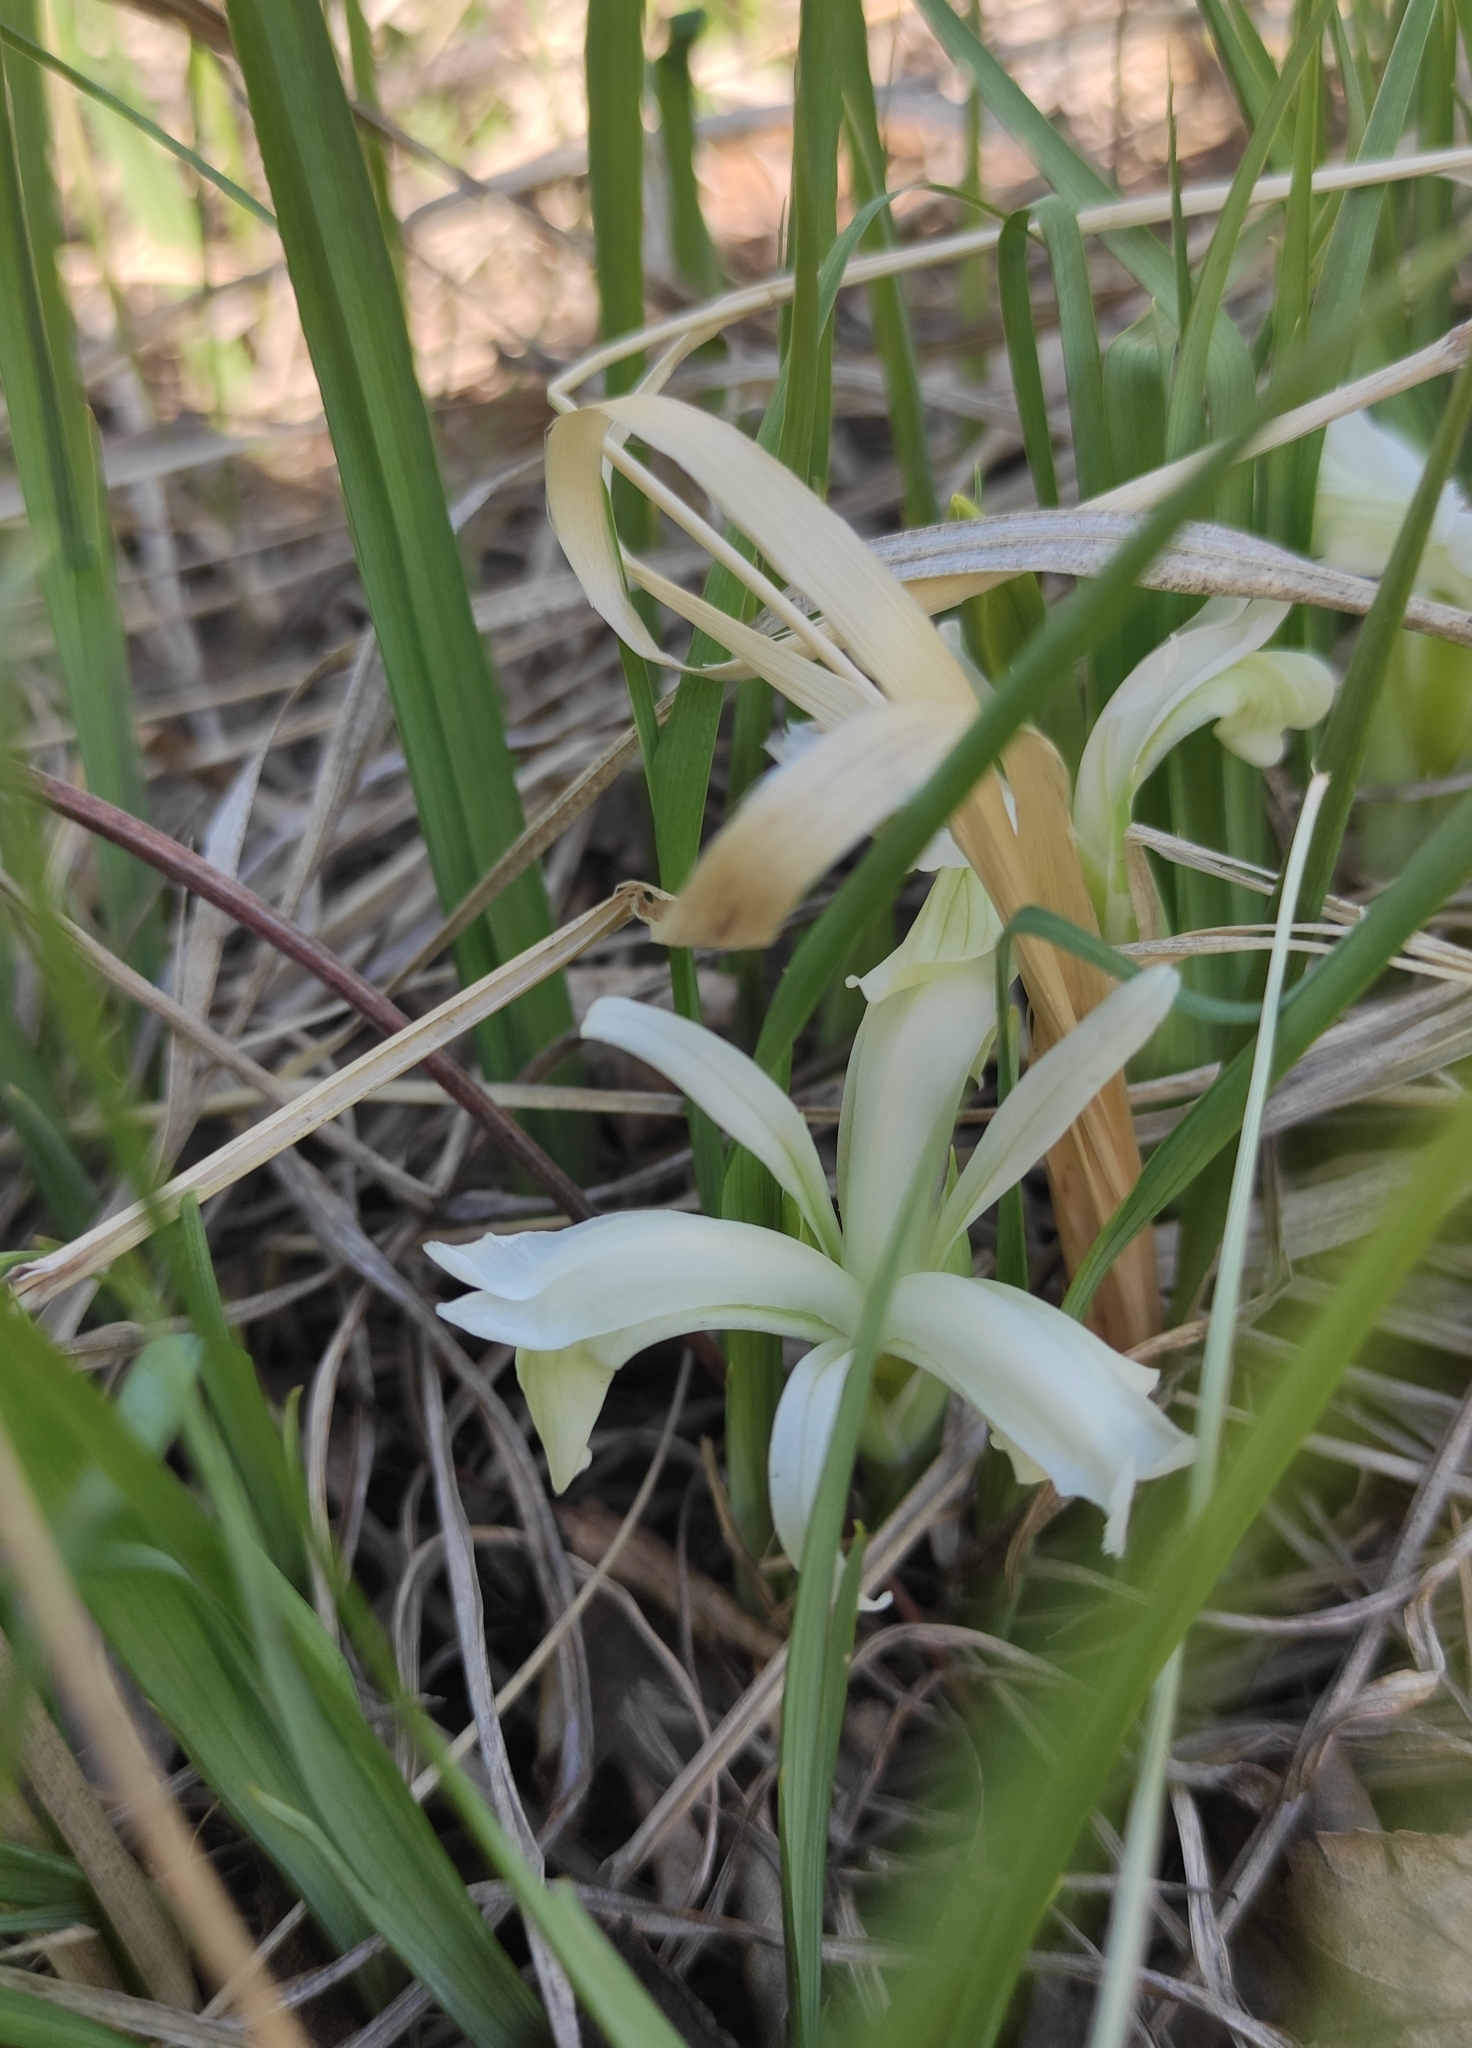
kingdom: Plantae
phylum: Tracheophyta
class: Liliopsida
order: Asparagales
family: Iridaceae
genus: Iris
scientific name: Iris ruthenica
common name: Purple-bract iris
